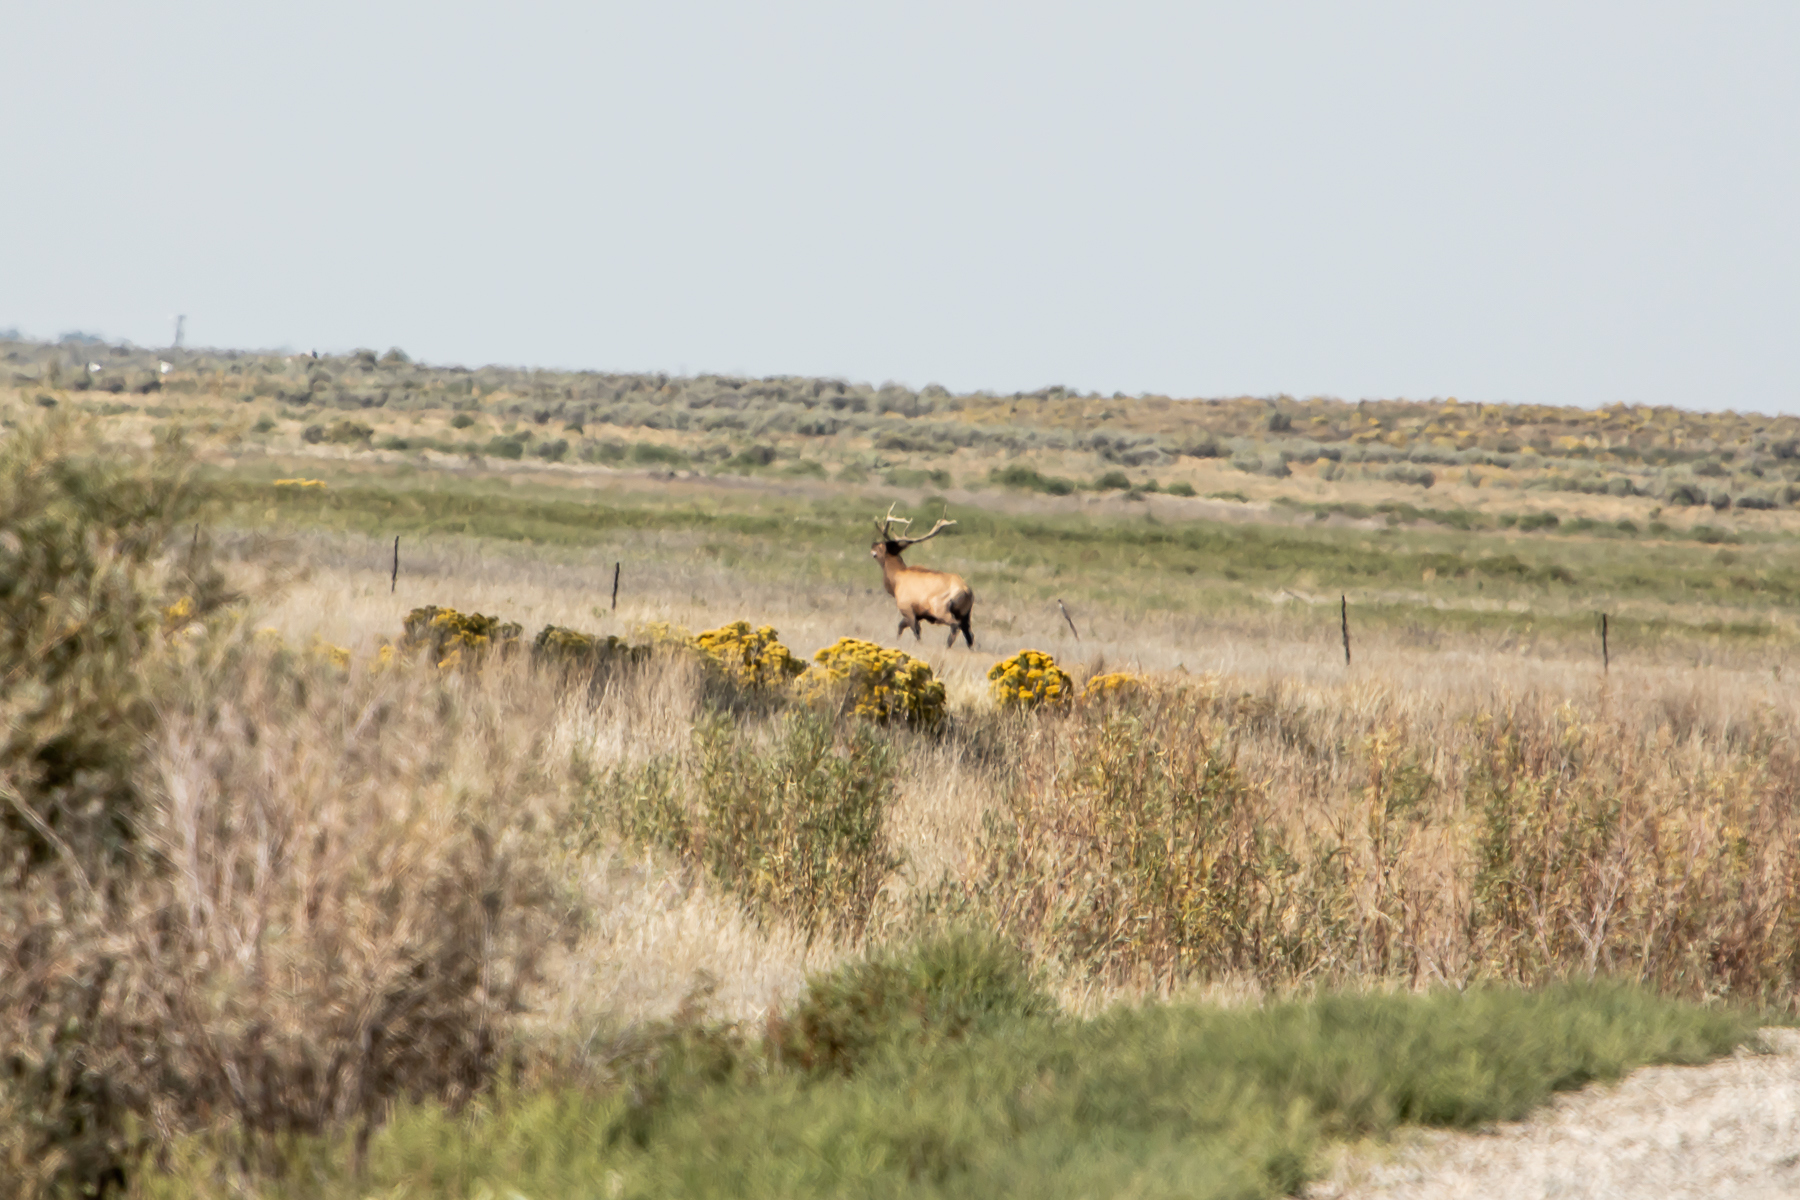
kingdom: Animalia
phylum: Chordata
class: Mammalia
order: Artiodactyla
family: Cervidae
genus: Cervus
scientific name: Cervus elaphus
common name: Red deer
